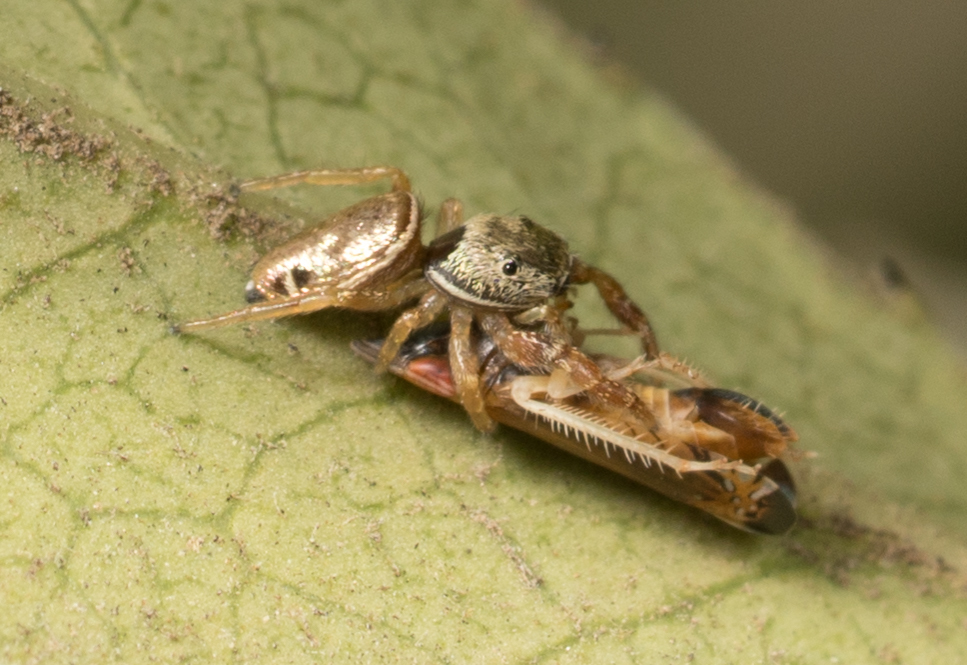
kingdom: Animalia
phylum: Arthropoda
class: Arachnida
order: Araneae
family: Salticidae
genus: Sassacus
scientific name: Sassacus vitis
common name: Jumping spiders
